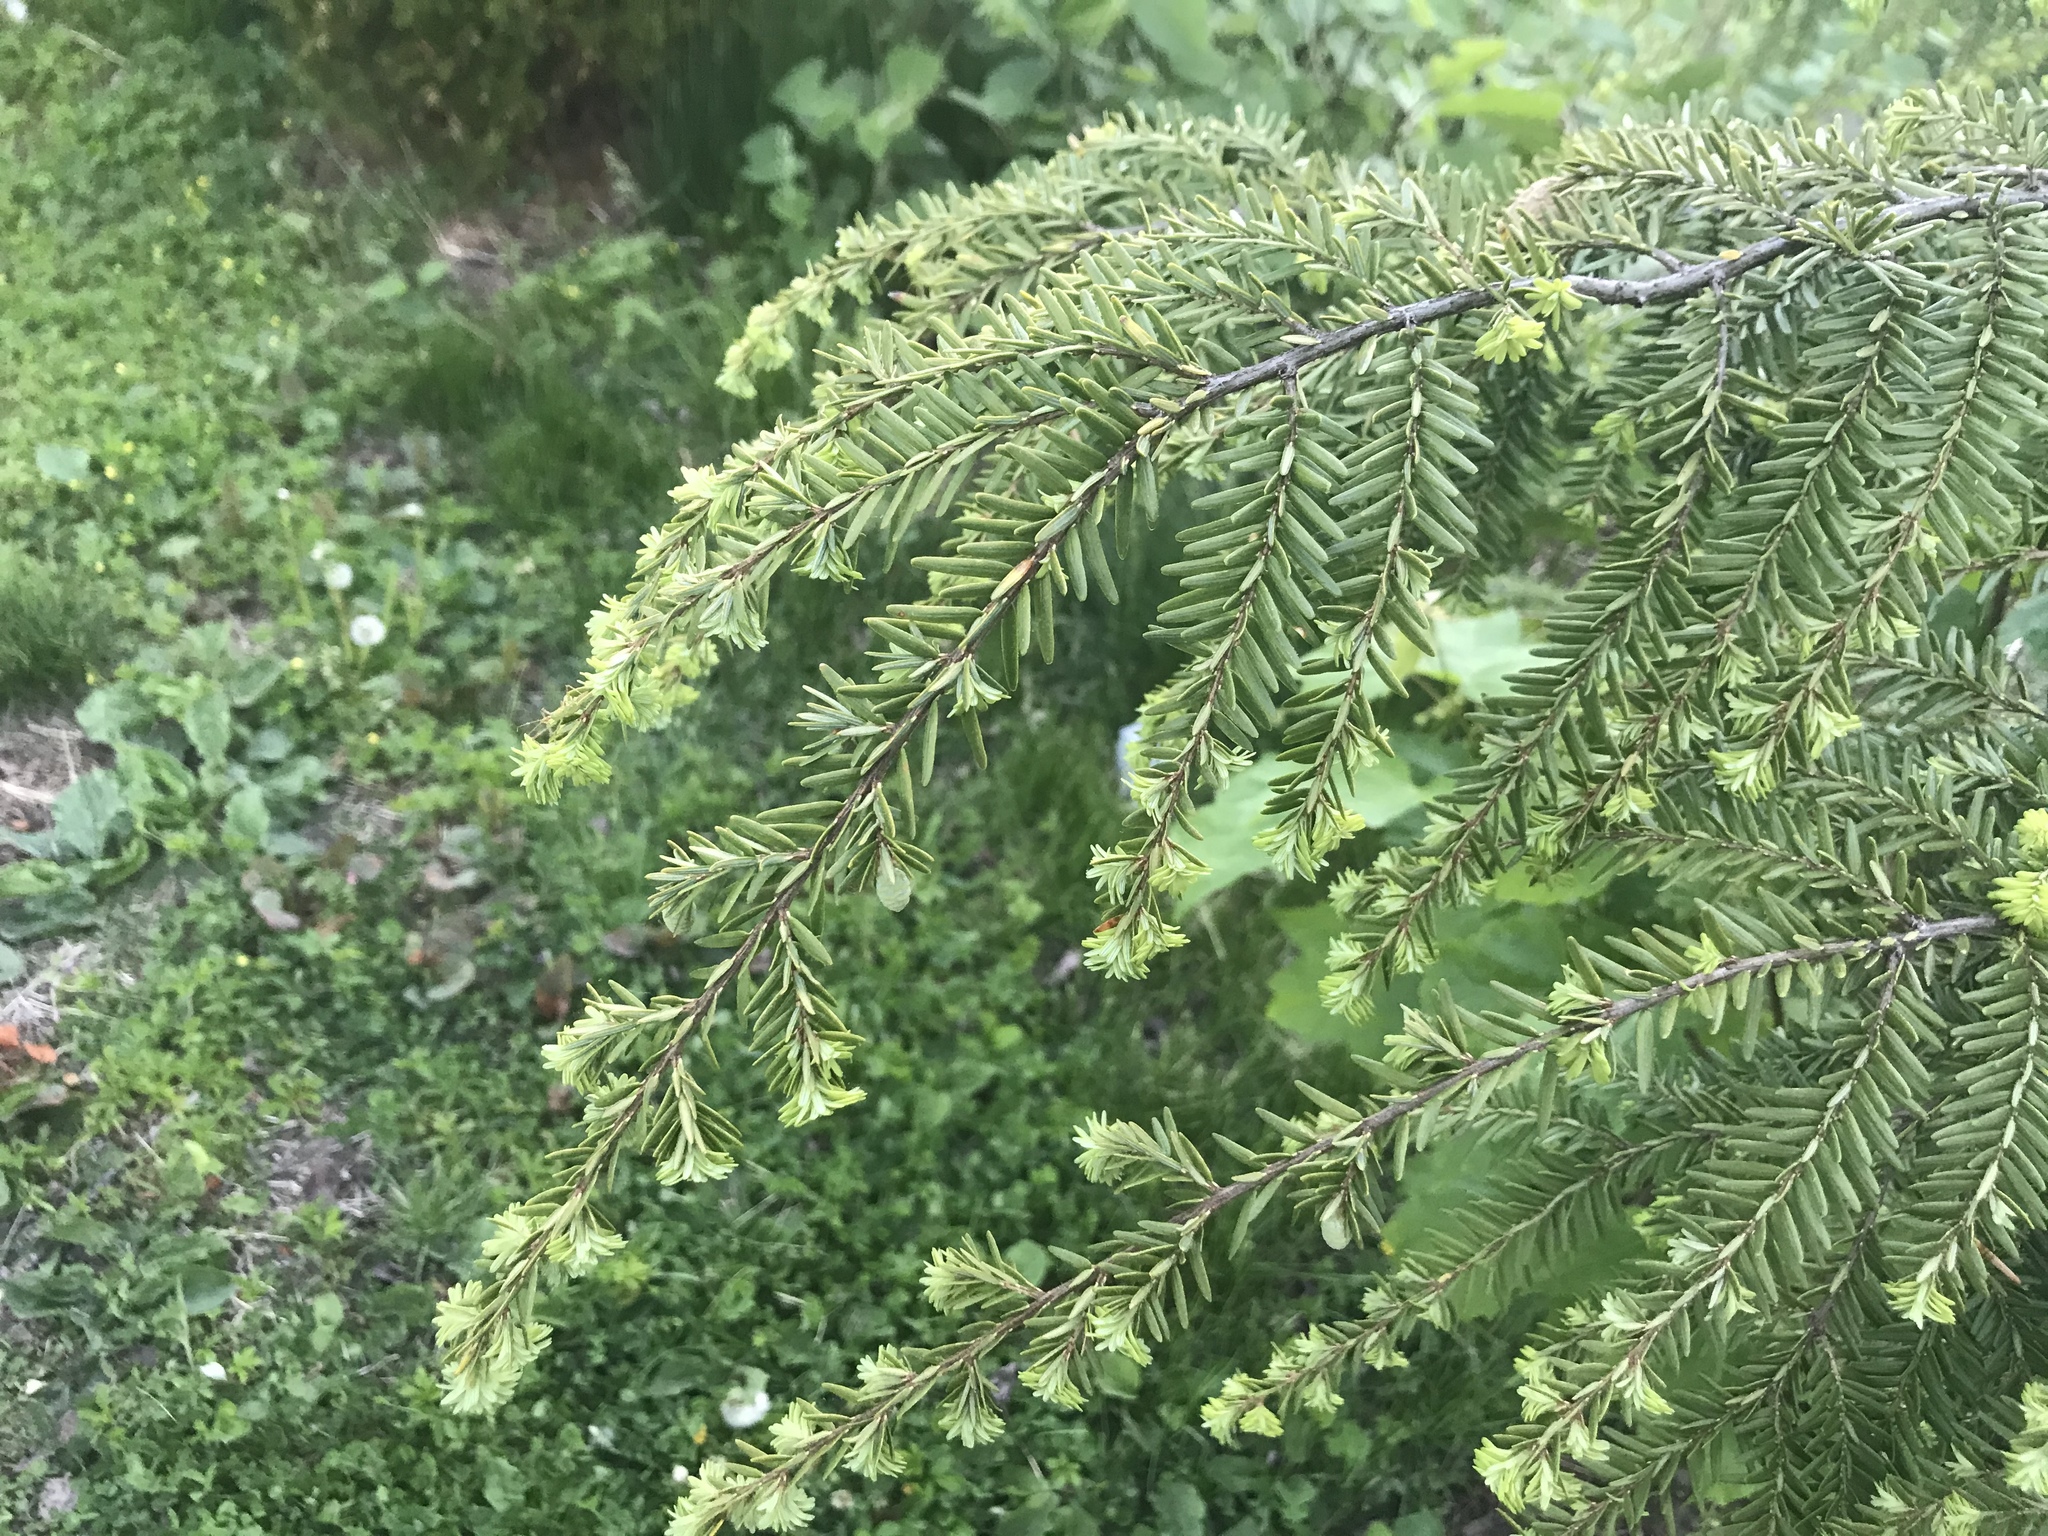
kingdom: Plantae
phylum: Tracheophyta
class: Pinopsida
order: Pinales
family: Pinaceae
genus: Tsuga
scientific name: Tsuga canadensis
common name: Eastern hemlock
